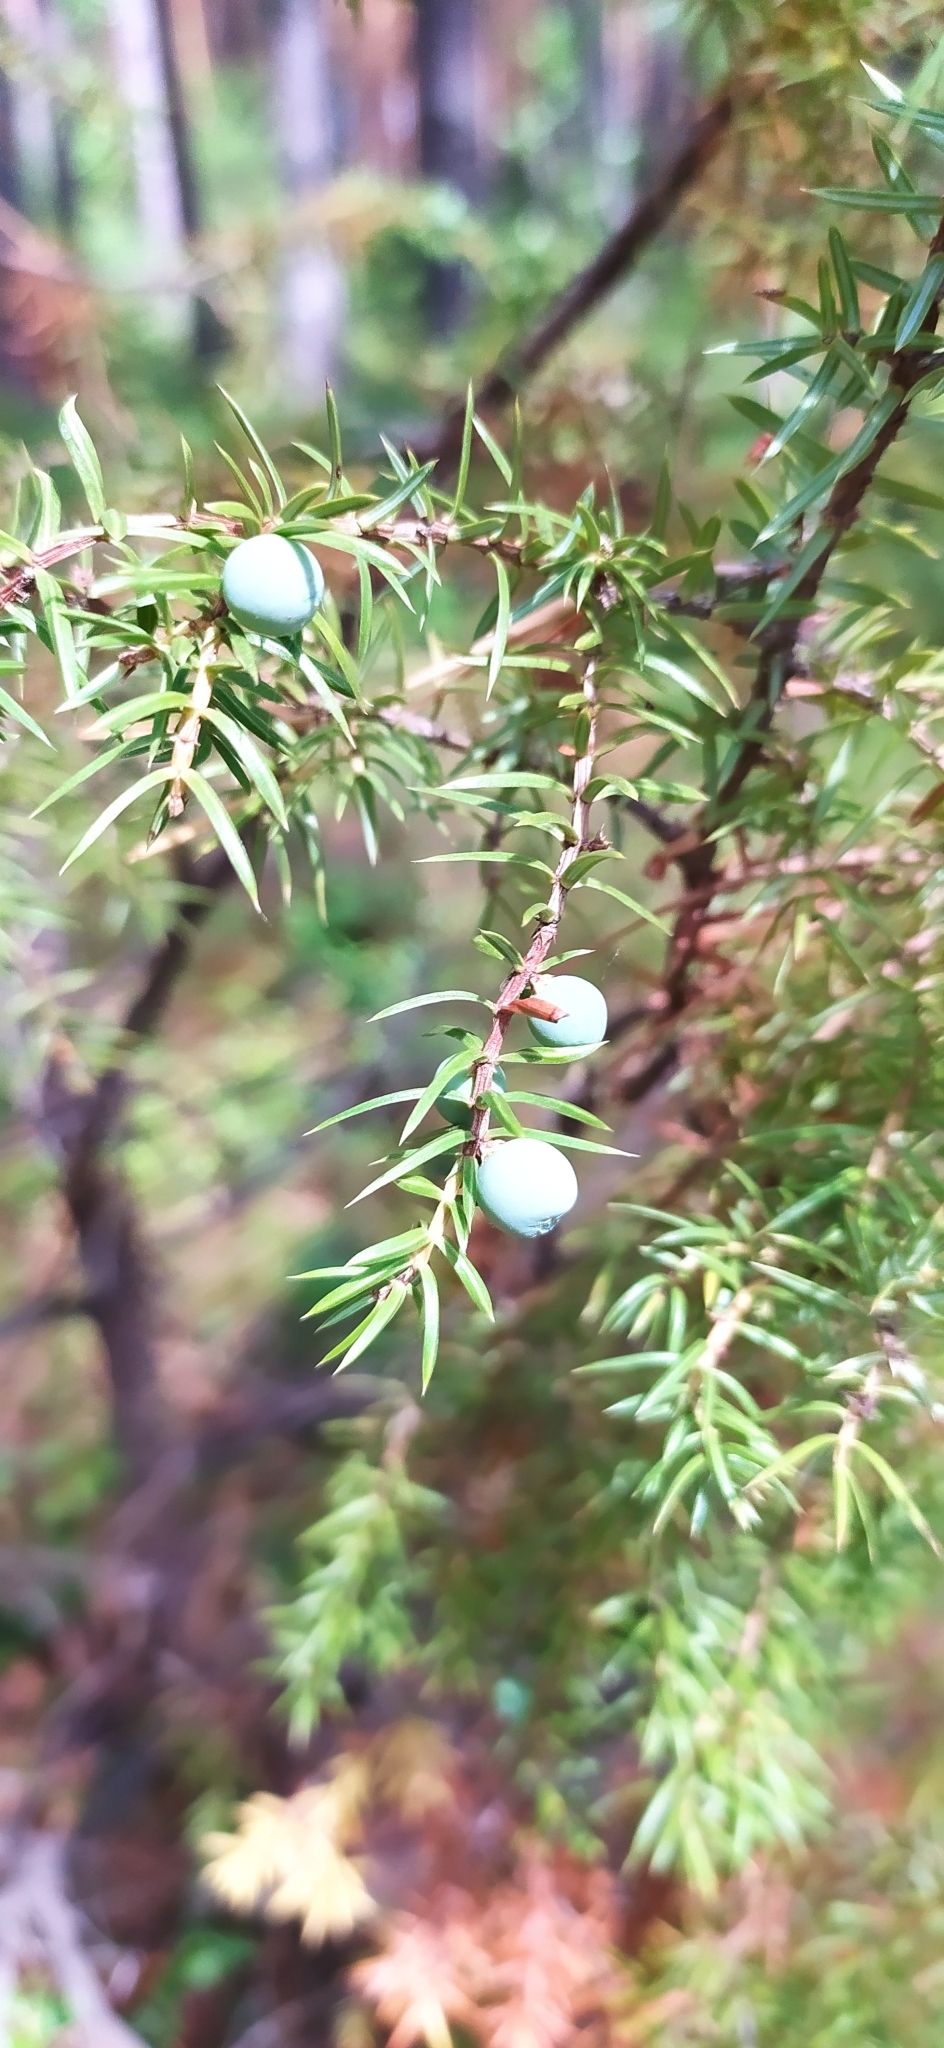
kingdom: Plantae
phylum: Tracheophyta
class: Pinopsida
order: Pinales
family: Cupressaceae
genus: Juniperus
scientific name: Juniperus communis
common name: Common juniper
